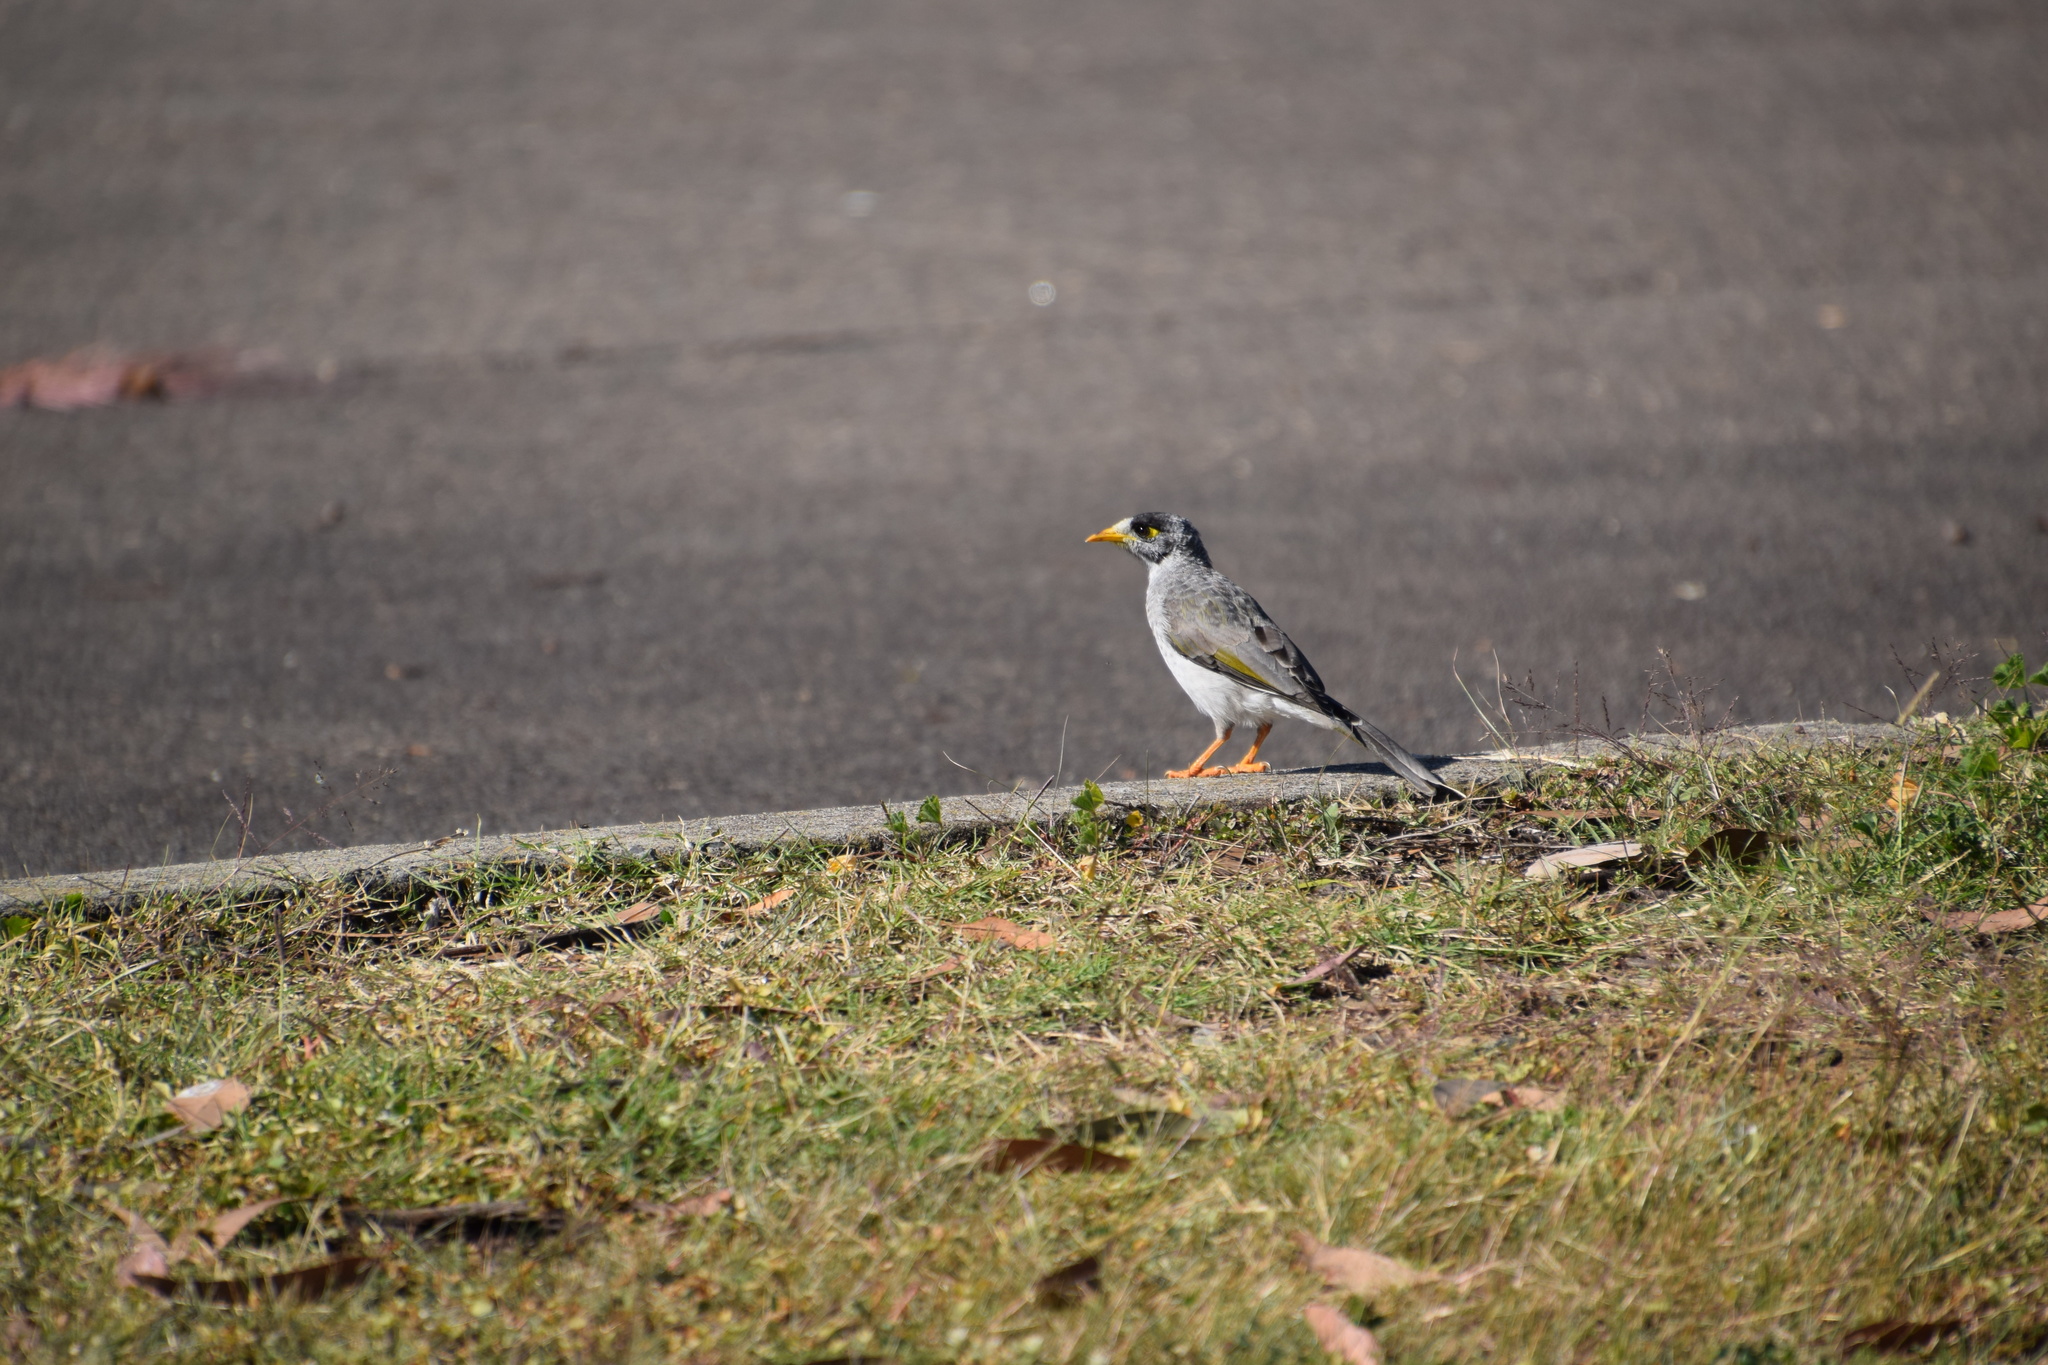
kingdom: Animalia
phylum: Chordata
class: Aves
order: Passeriformes
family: Meliphagidae
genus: Manorina
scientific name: Manorina melanocephala
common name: Noisy miner
